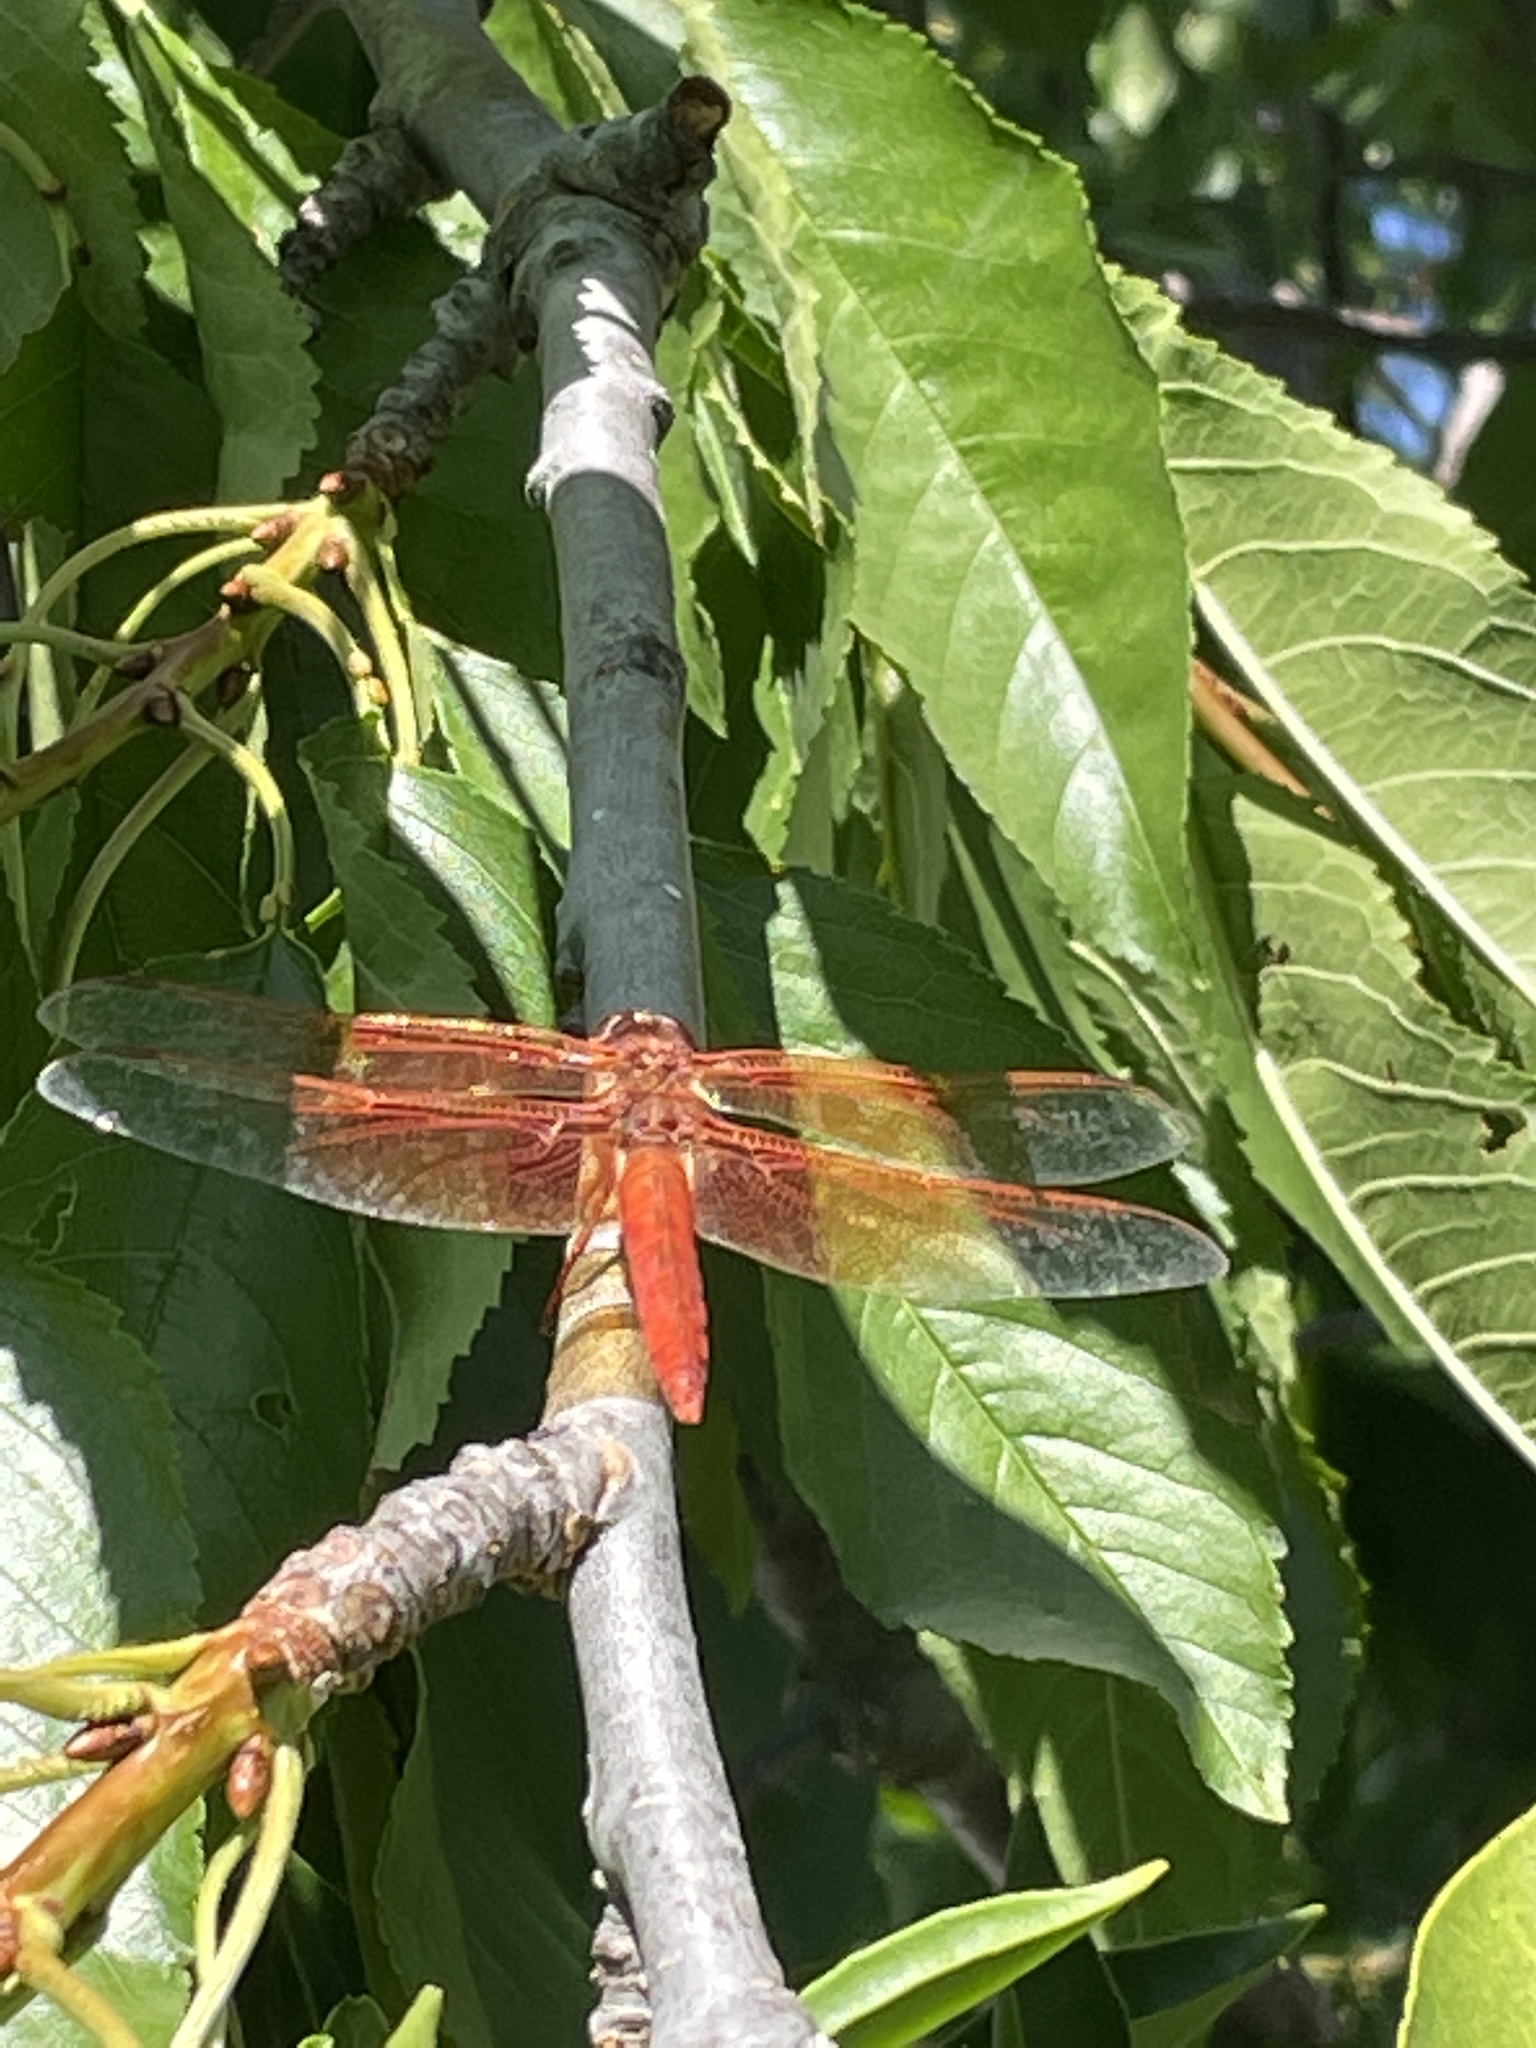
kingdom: Animalia
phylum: Arthropoda
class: Insecta
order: Odonata
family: Libellulidae
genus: Libellula
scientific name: Libellula saturata
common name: Flame skimmer
